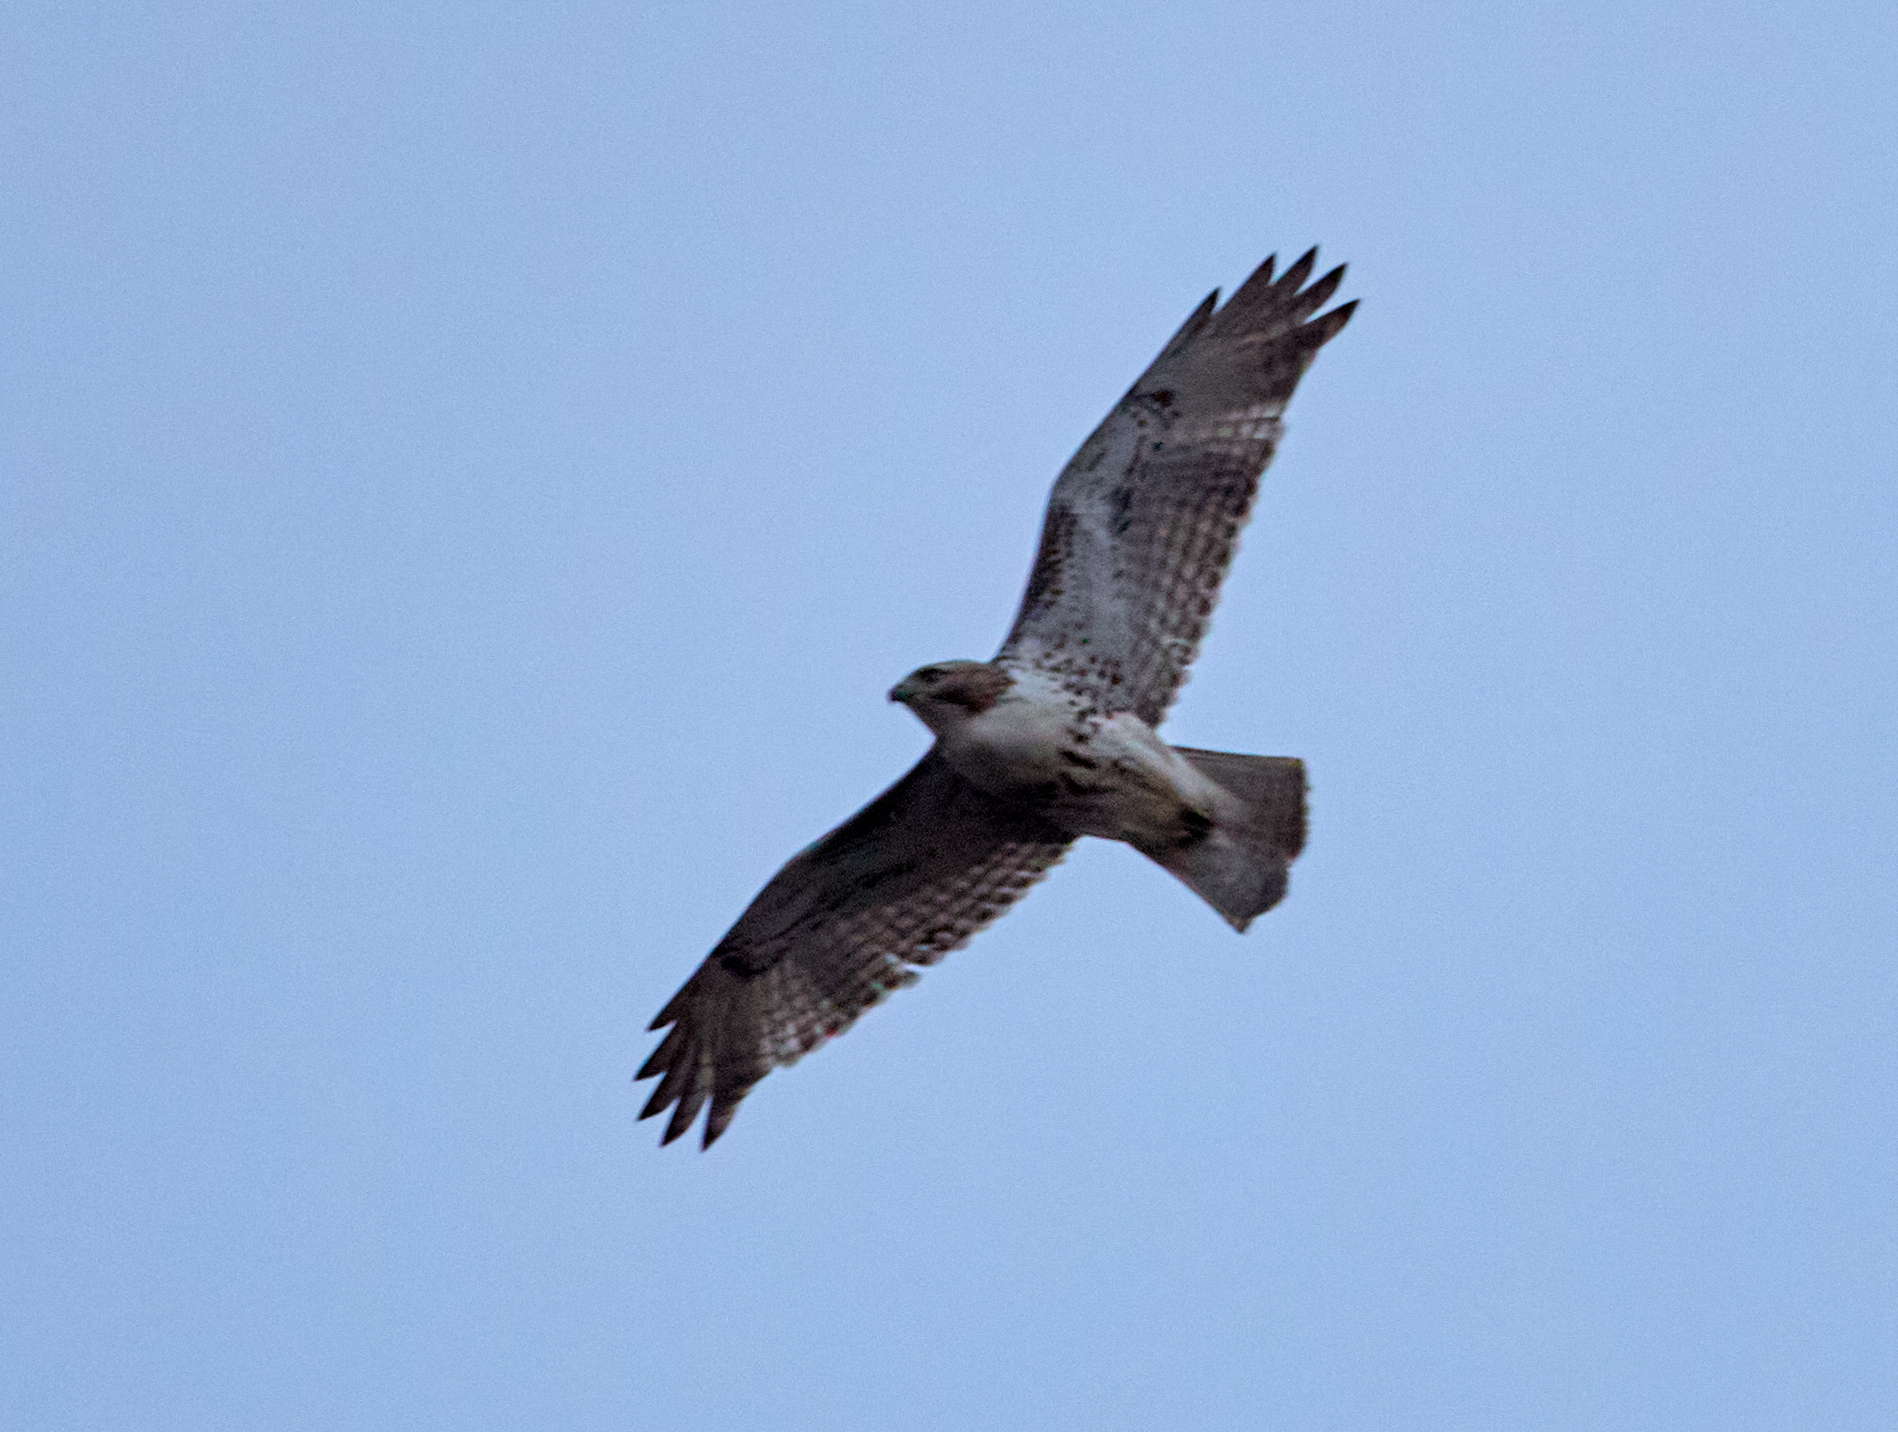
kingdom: Animalia
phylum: Chordata
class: Aves
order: Accipitriformes
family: Accipitridae
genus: Buteo
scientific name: Buteo jamaicensis
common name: Red-tailed hawk
